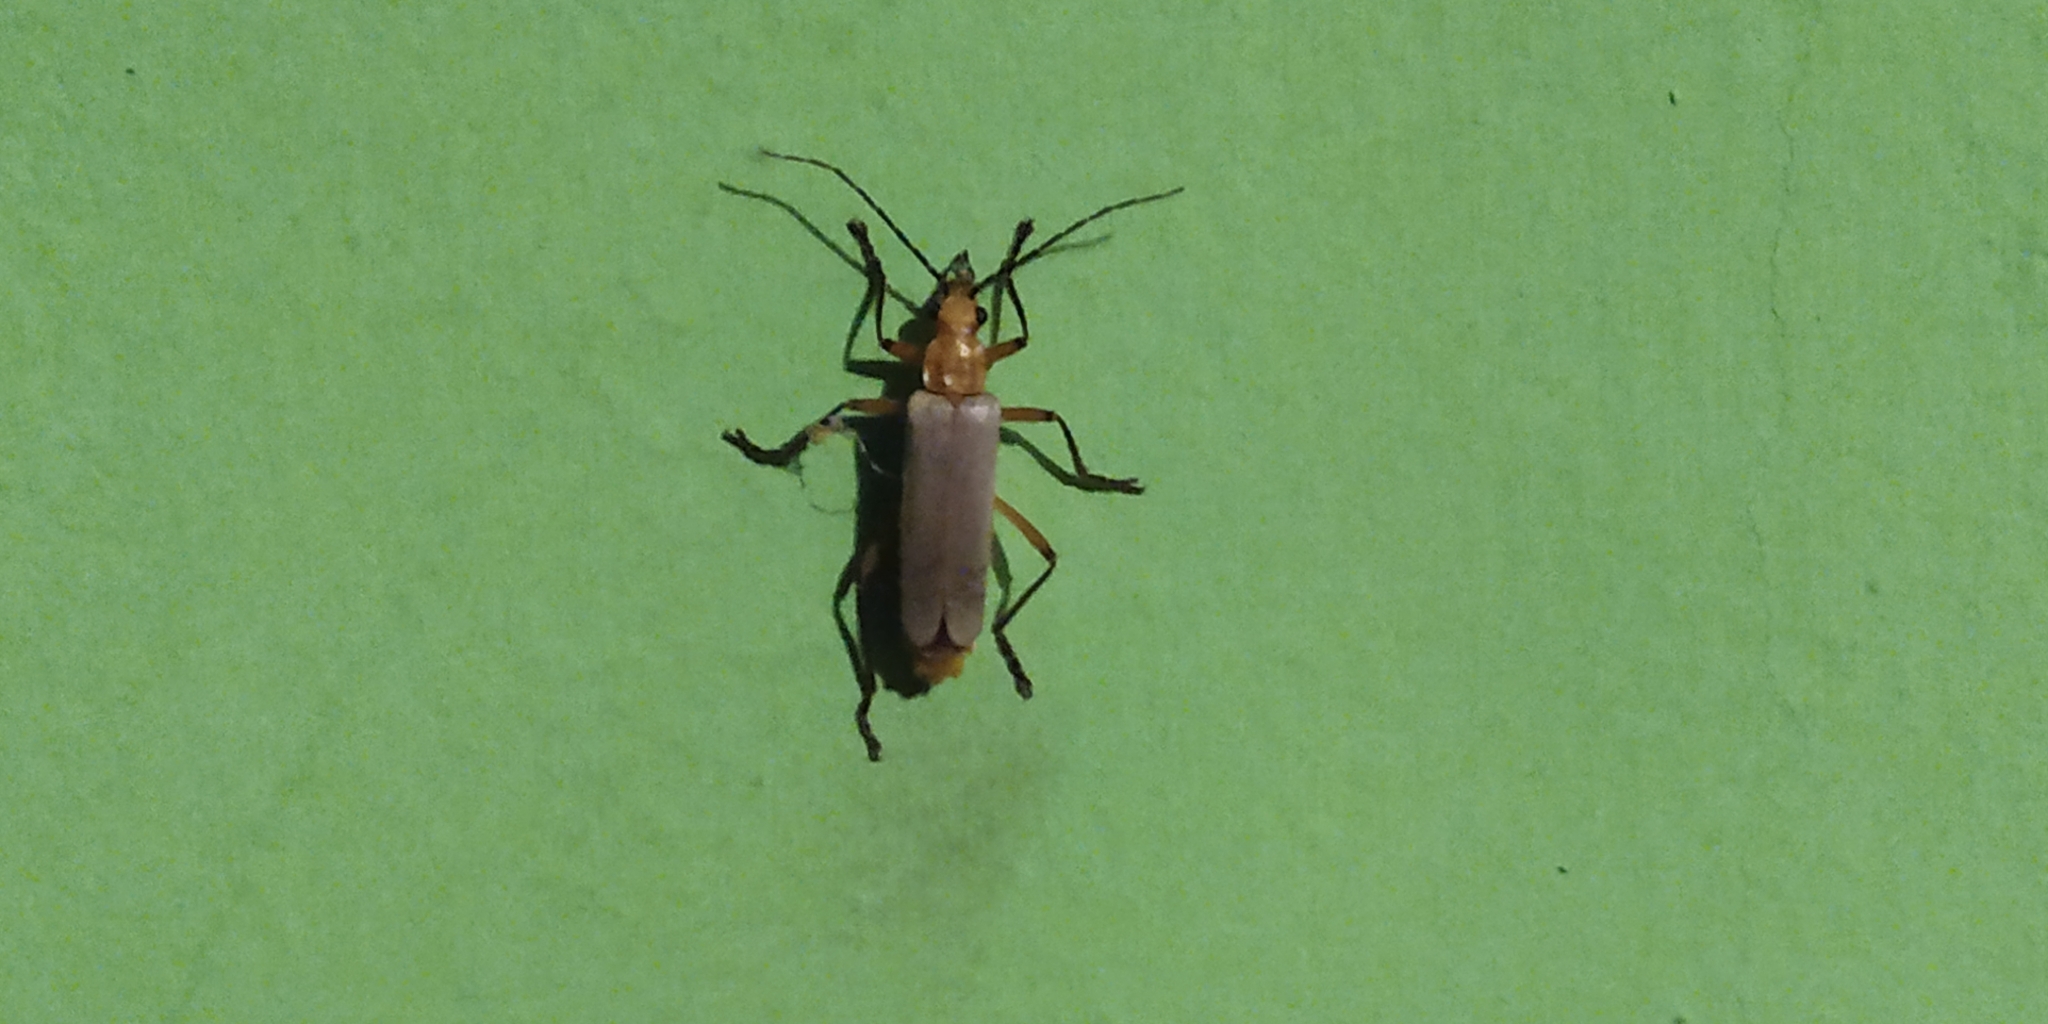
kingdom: Animalia
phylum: Arthropoda
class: Insecta
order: Coleoptera
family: Cantharidae
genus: Chauliognathus
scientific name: Chauliognathus
